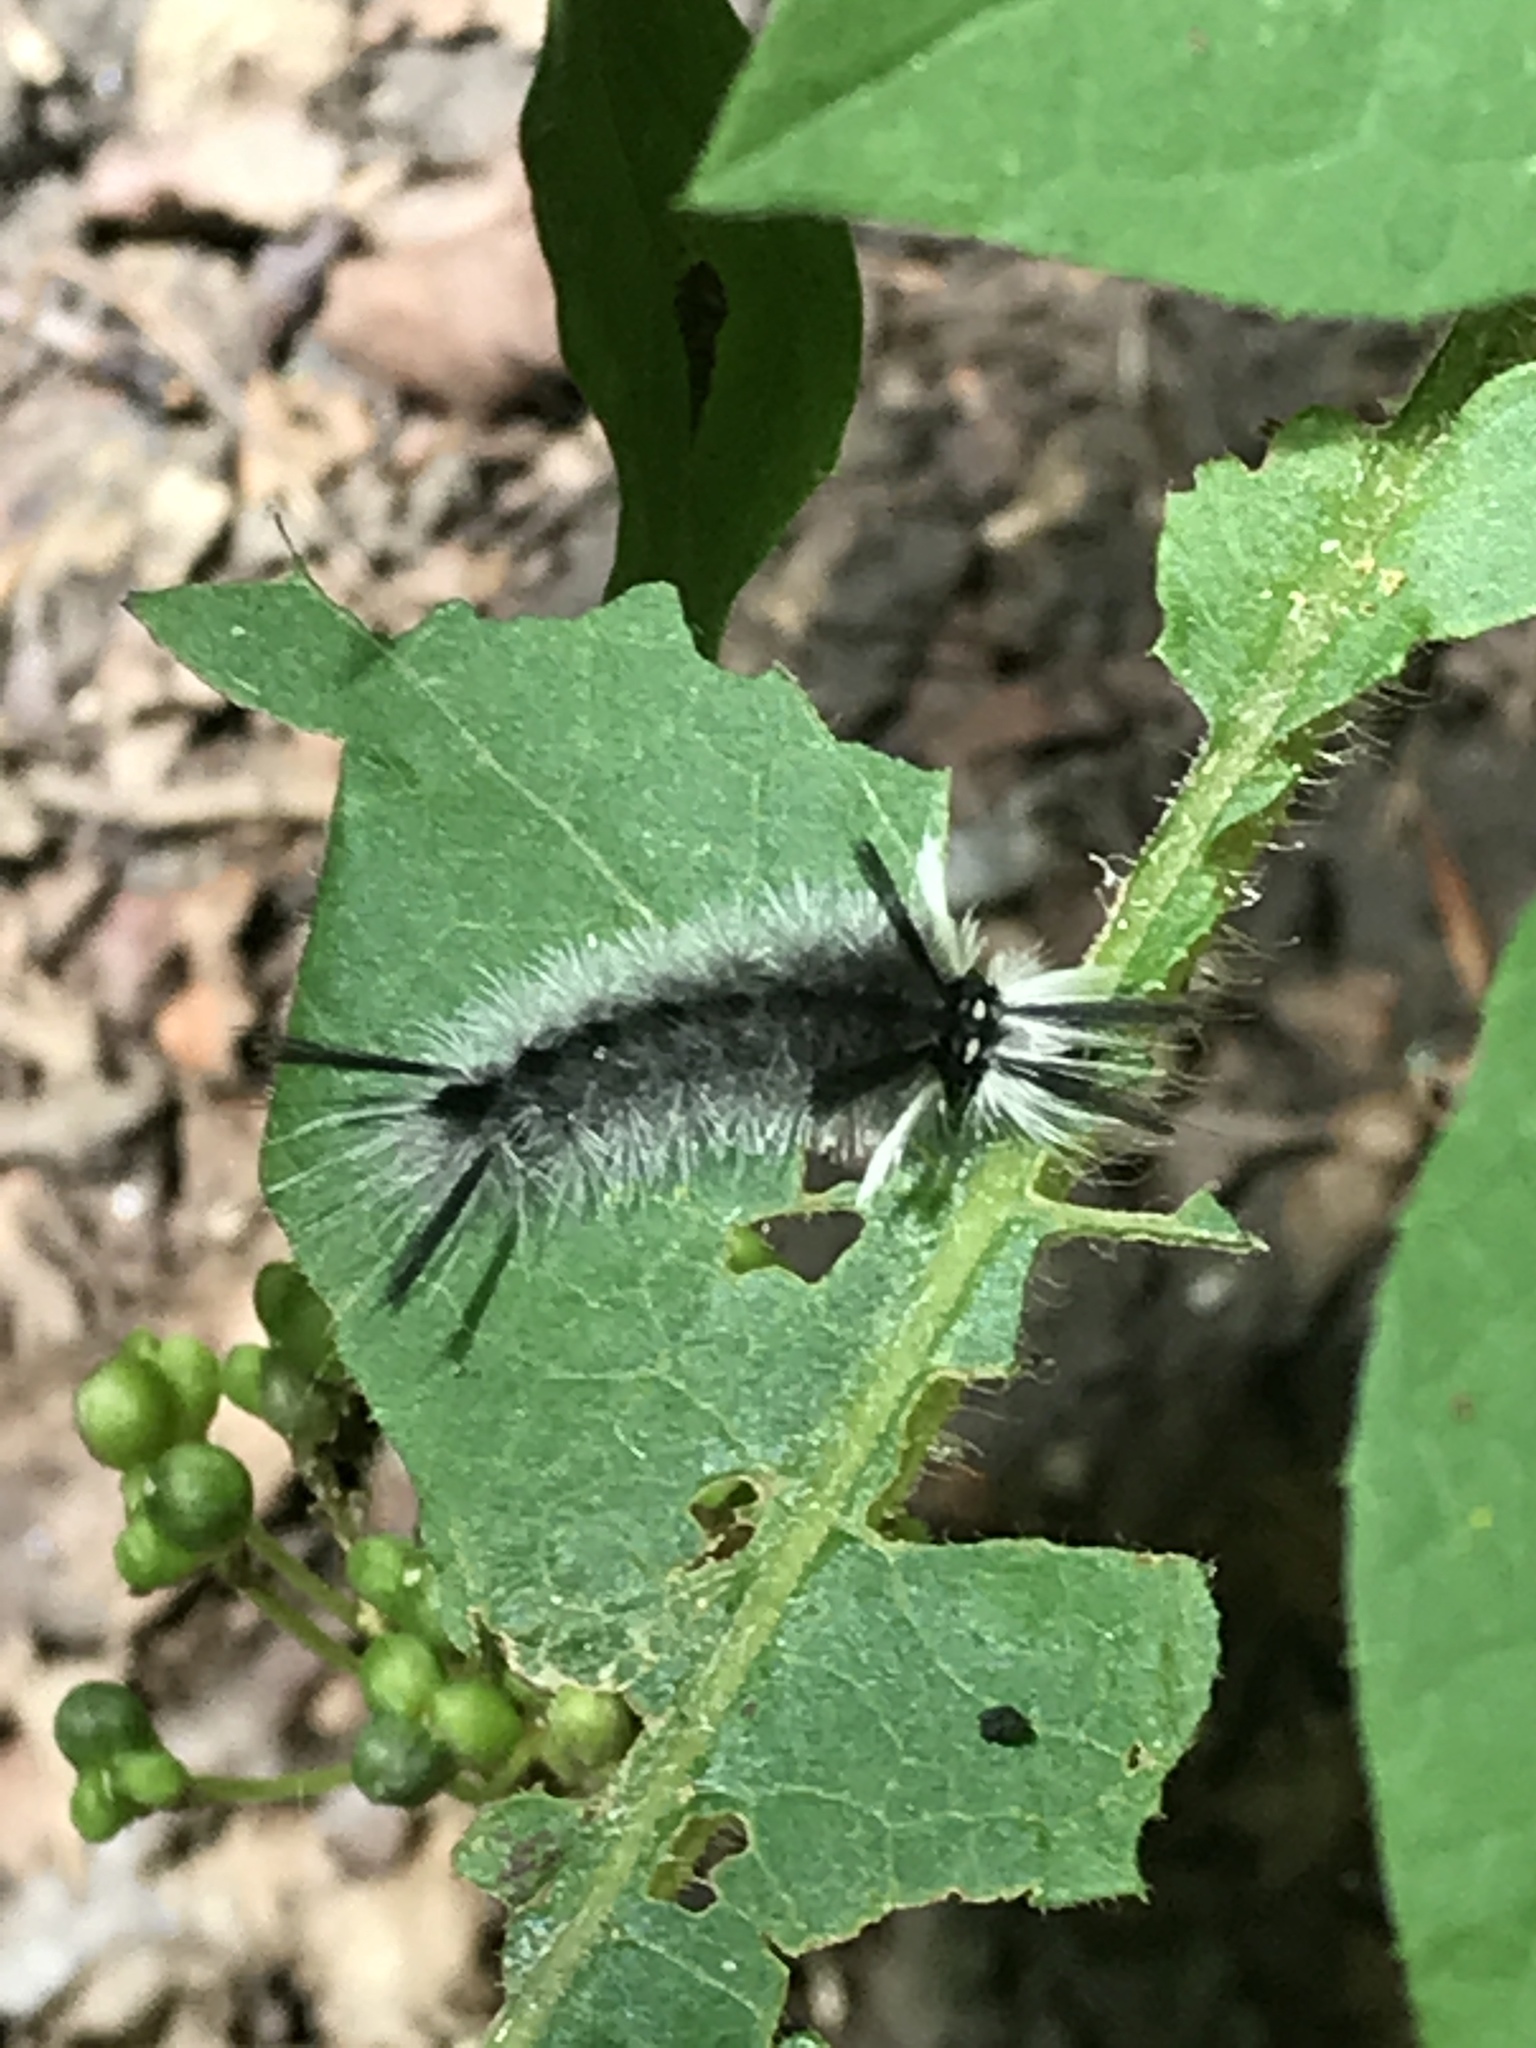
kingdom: Animalia
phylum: Arthropoda
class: Insecta
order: Lepidoptera
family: Erebidae
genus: Halysidota
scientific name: Halysidota tessellaris
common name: Banded tussock moth
